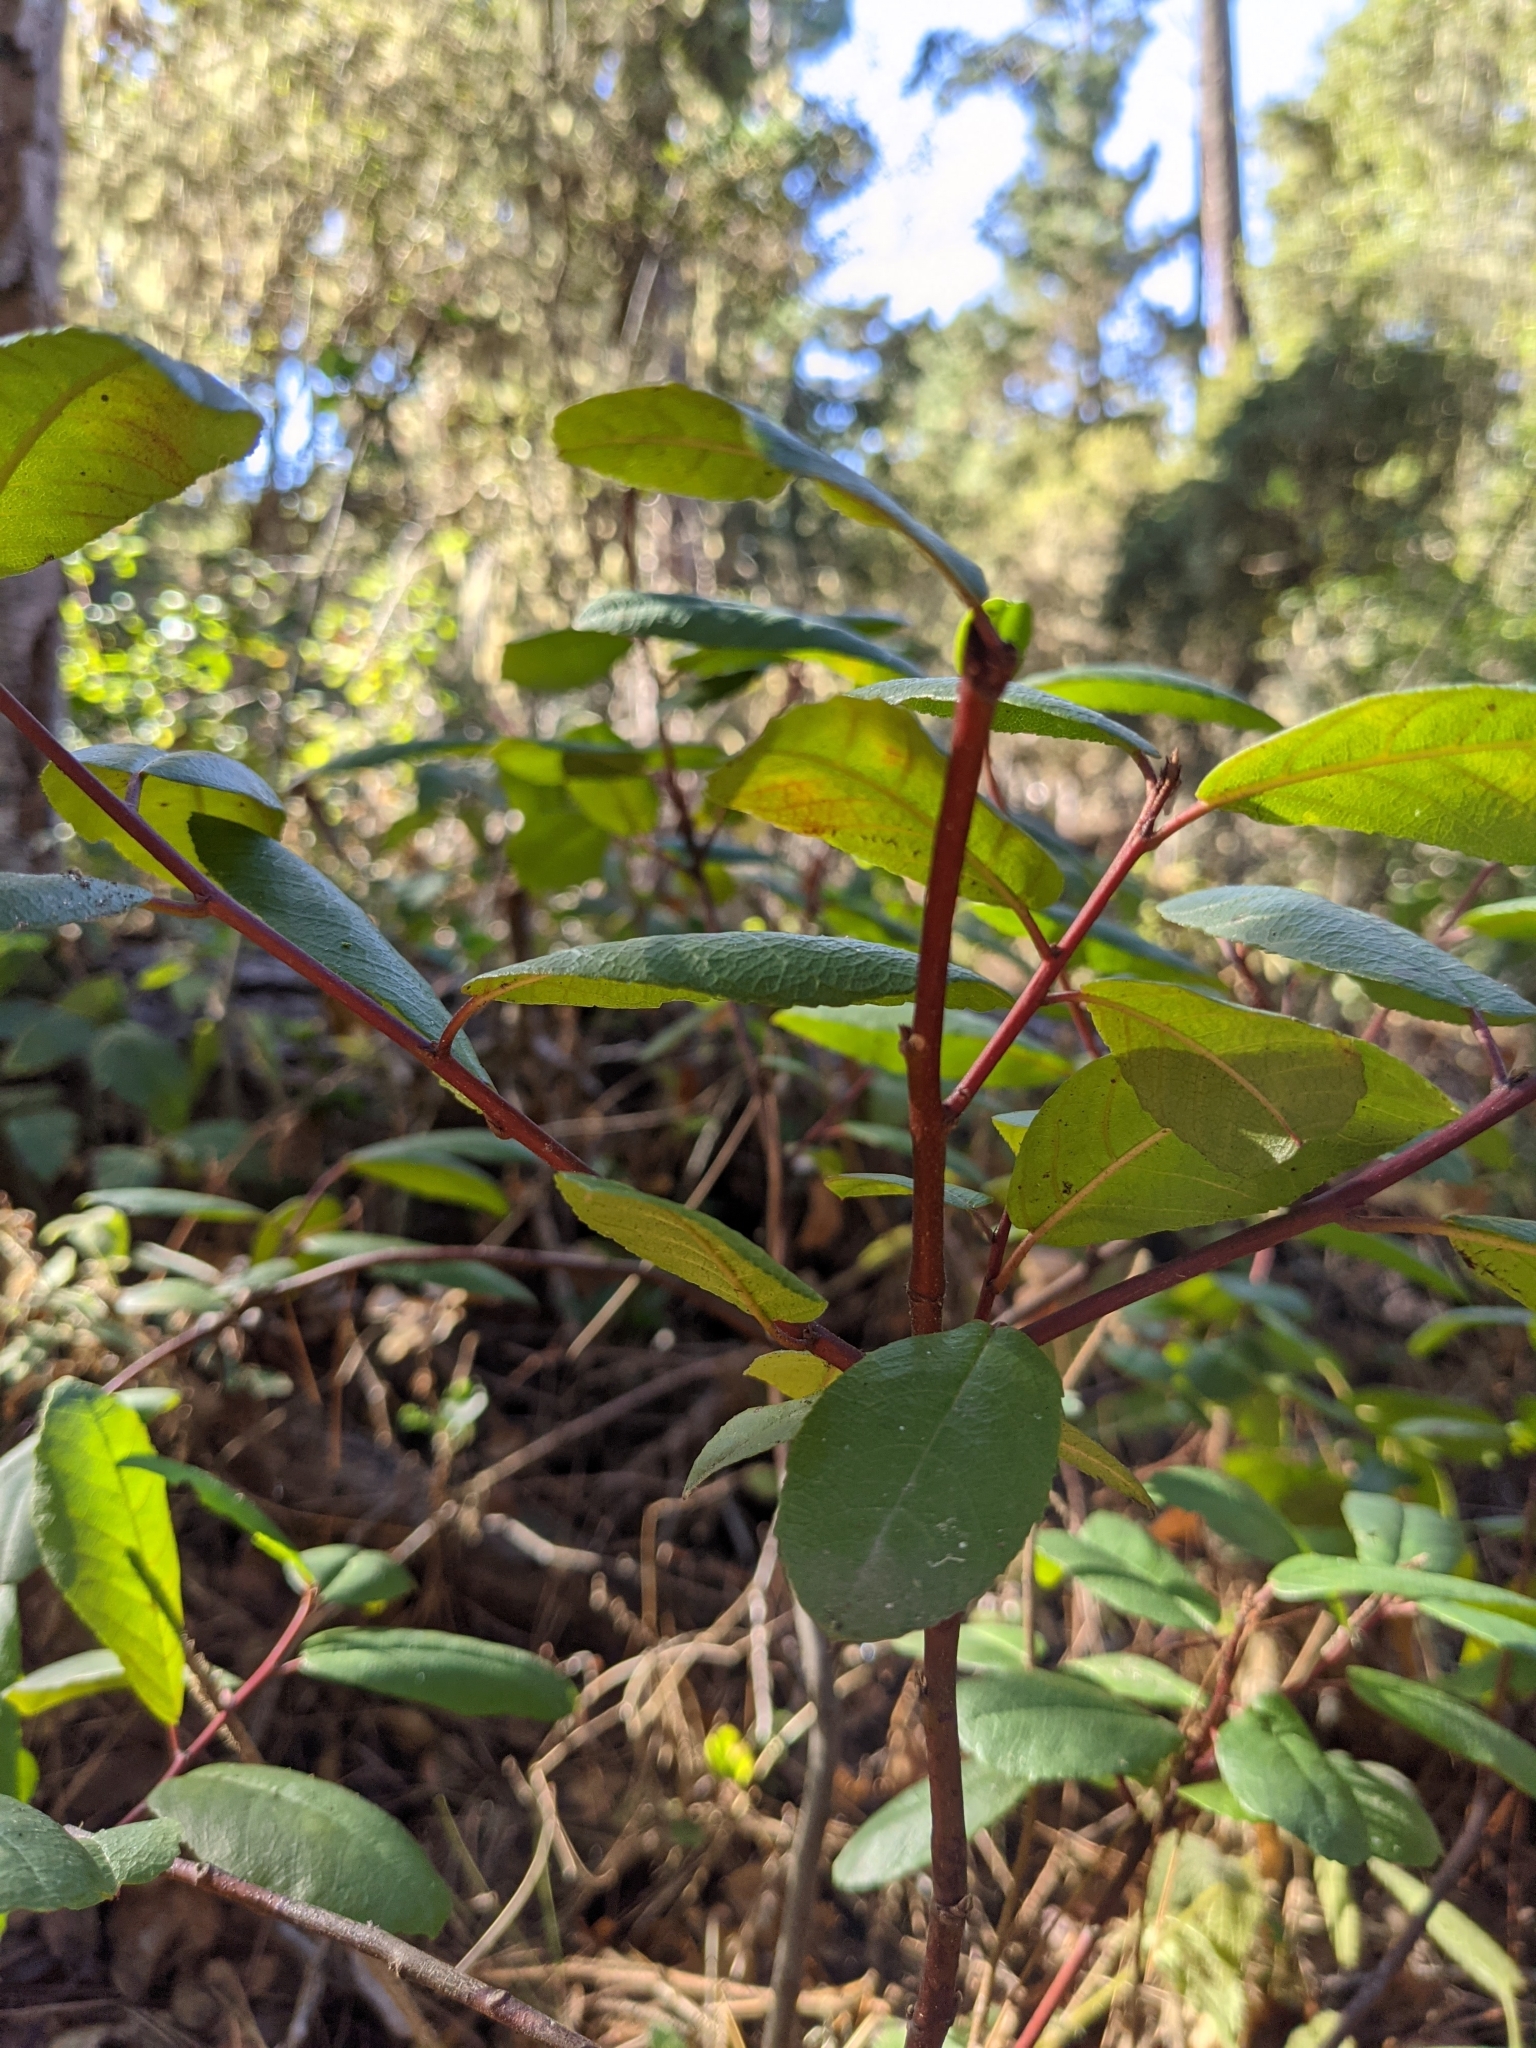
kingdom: Plantae
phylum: Tracheophyta
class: Magnoliopsida
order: Rosales
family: Rhamnaceae
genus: Frangula
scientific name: Frangula californica
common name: California buckthorn
